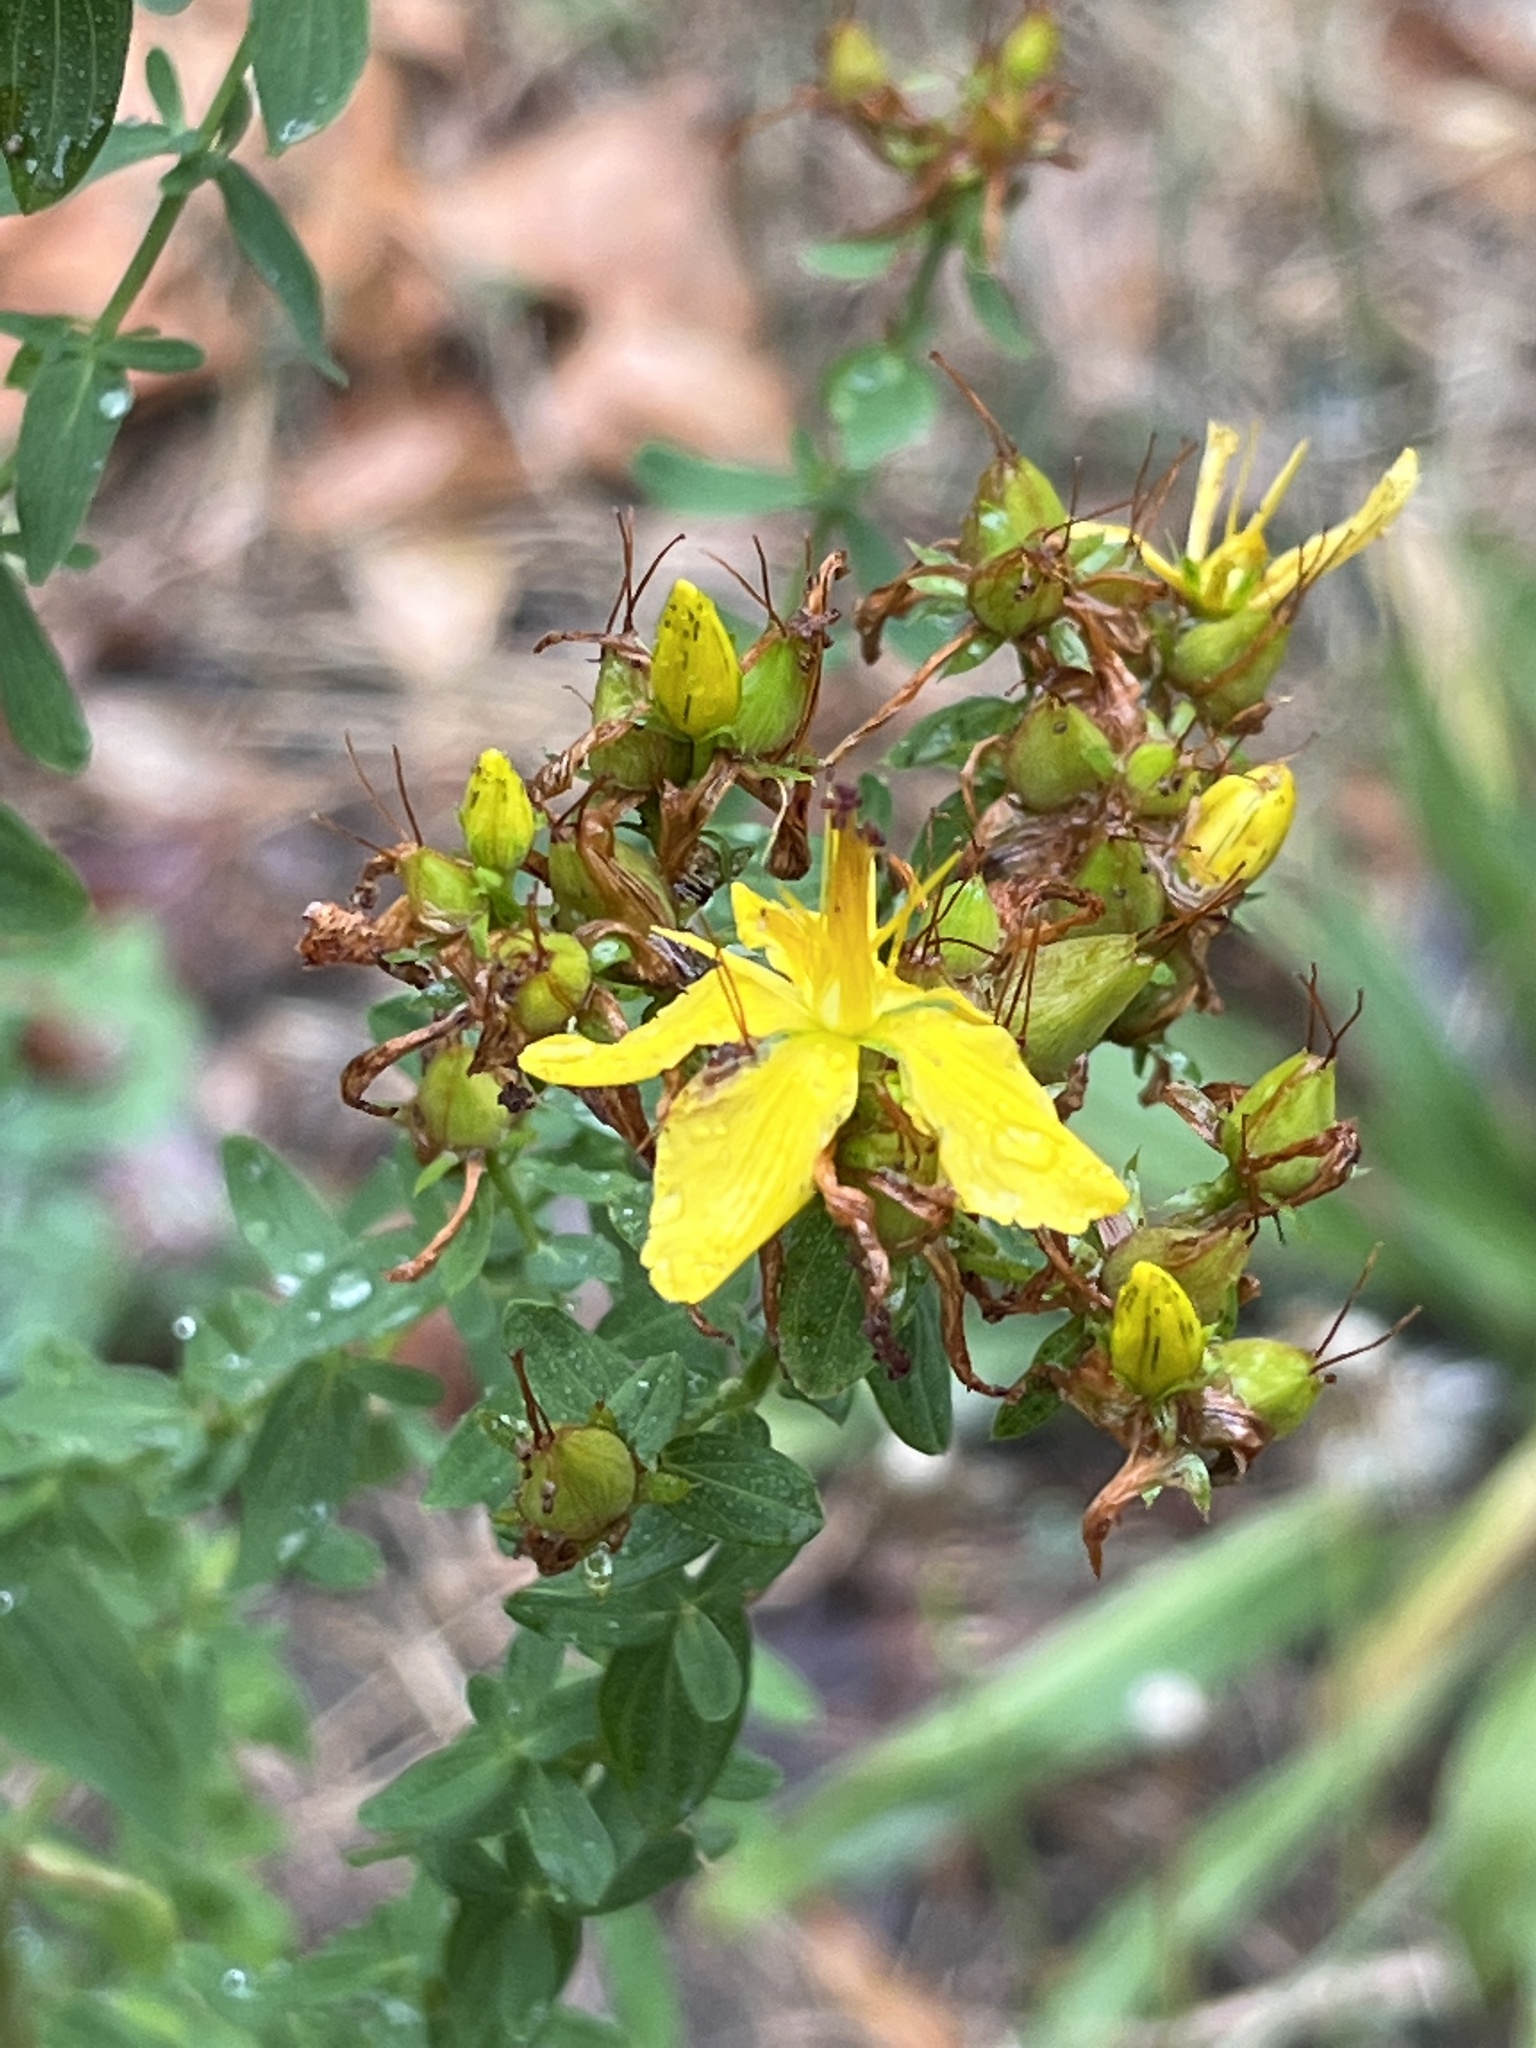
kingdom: Plantae
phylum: Tracheophyta
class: Magnoliopsida
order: Malpighiales
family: Hypericaceae
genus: Hypericum
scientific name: Hypericum perforatum
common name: Common st. johnswort
